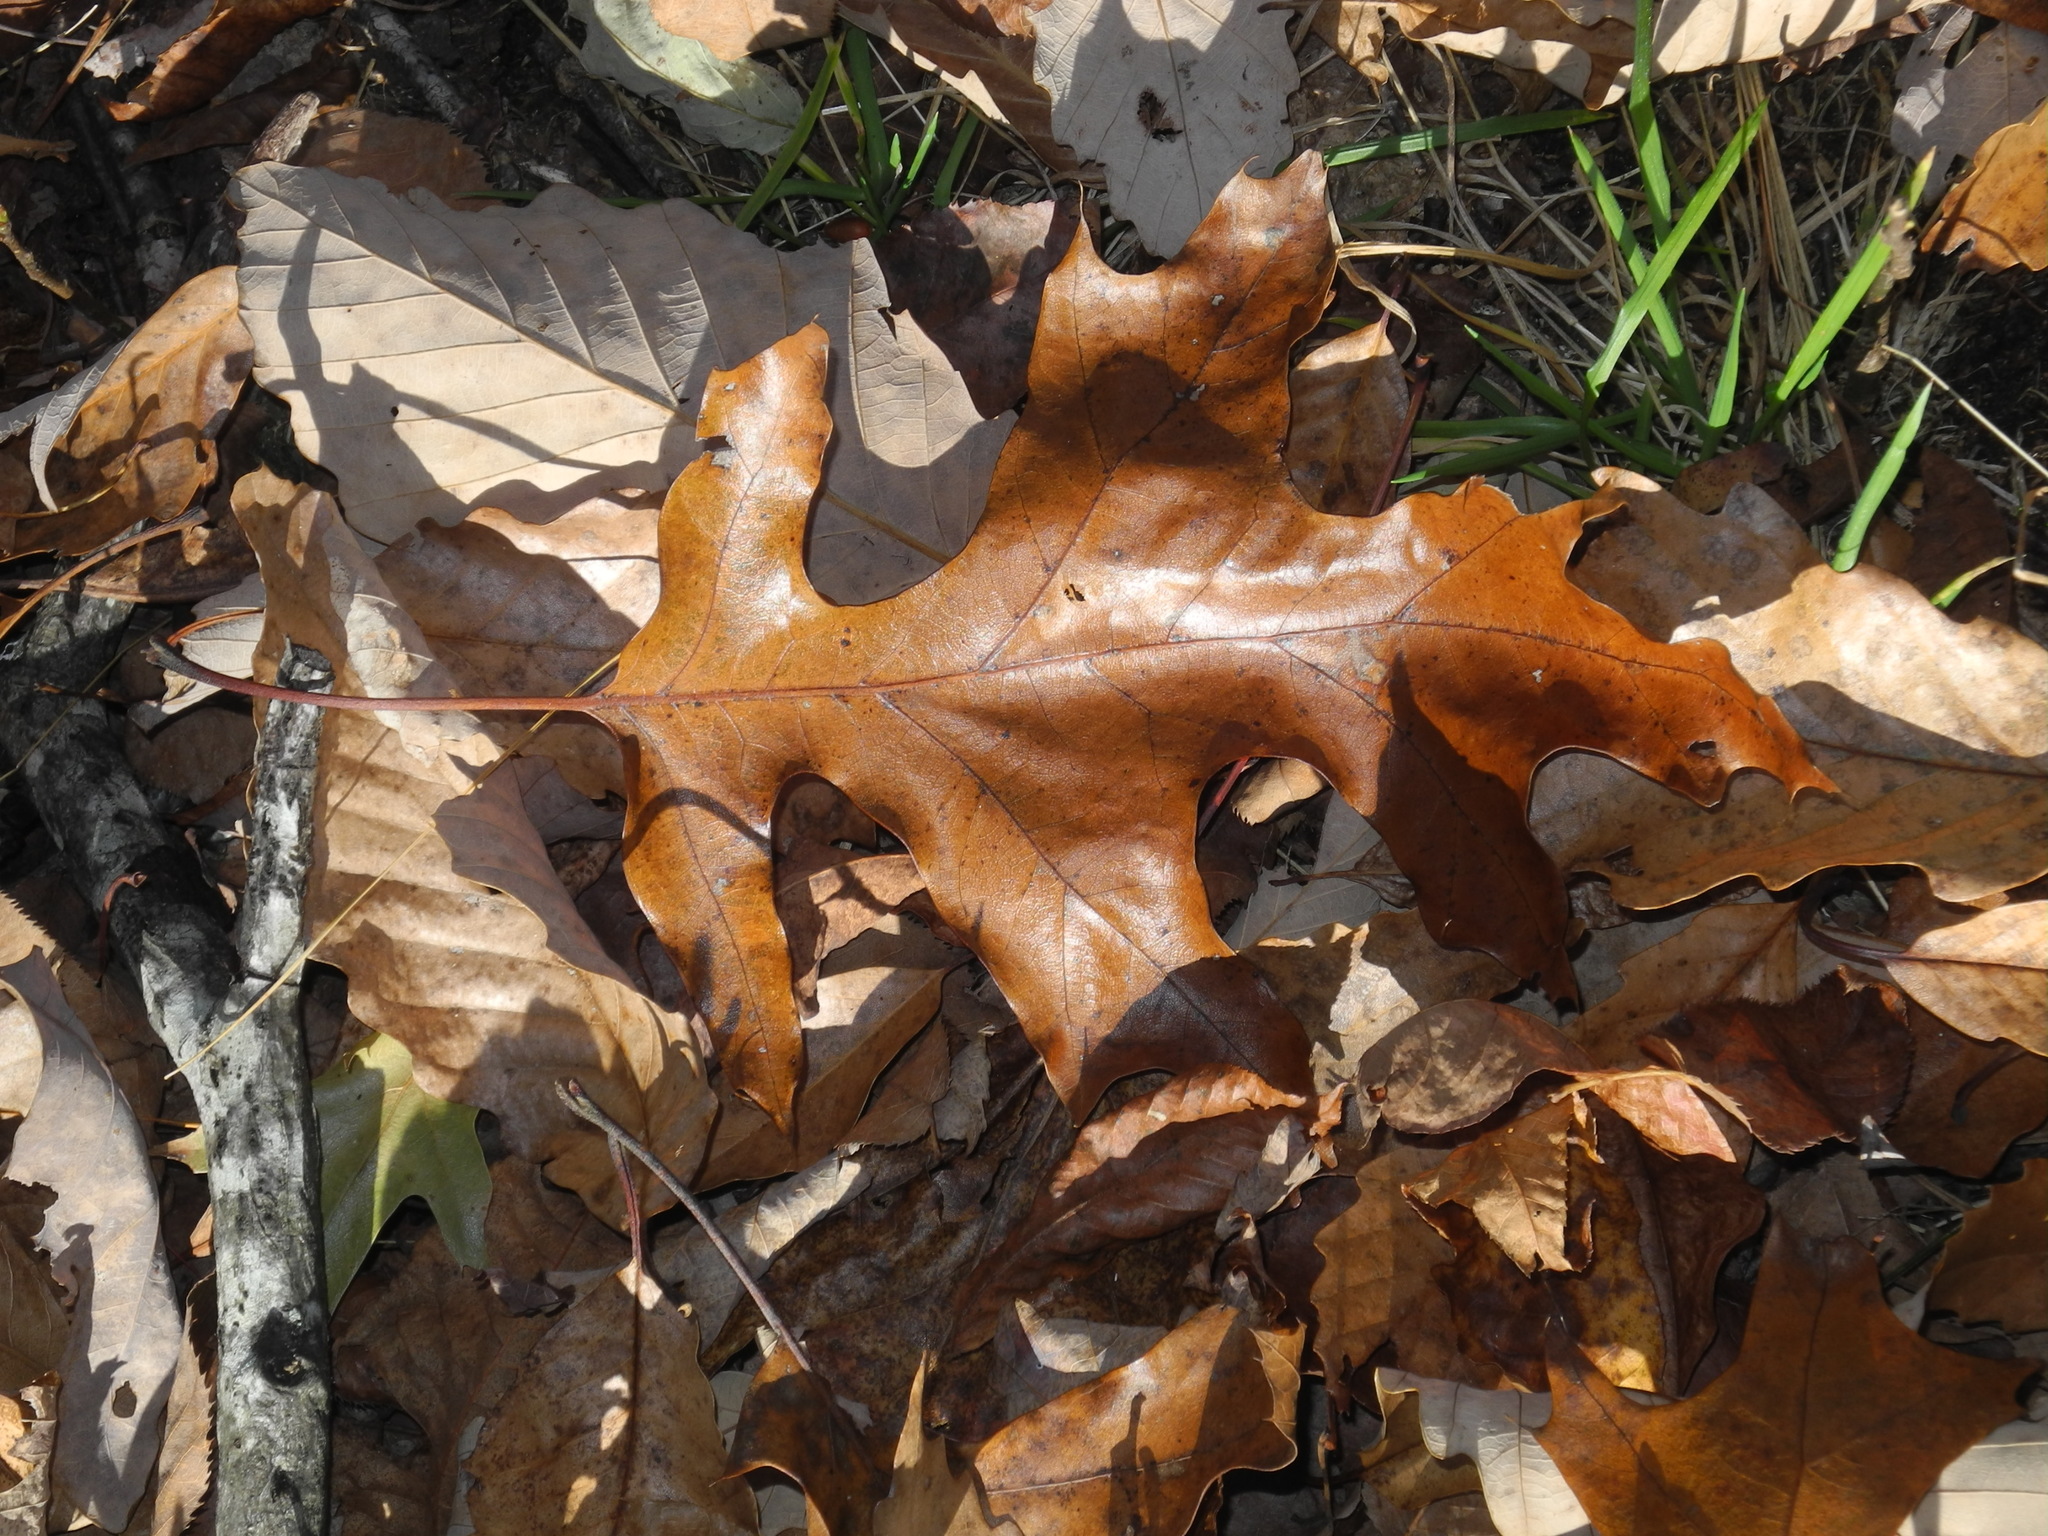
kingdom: Plantae
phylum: Tracheophyta
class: Magnoliopsida
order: Fagales
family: Fagaceae
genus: Quercus
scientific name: Quercus coccinea
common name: Scarlet oak
